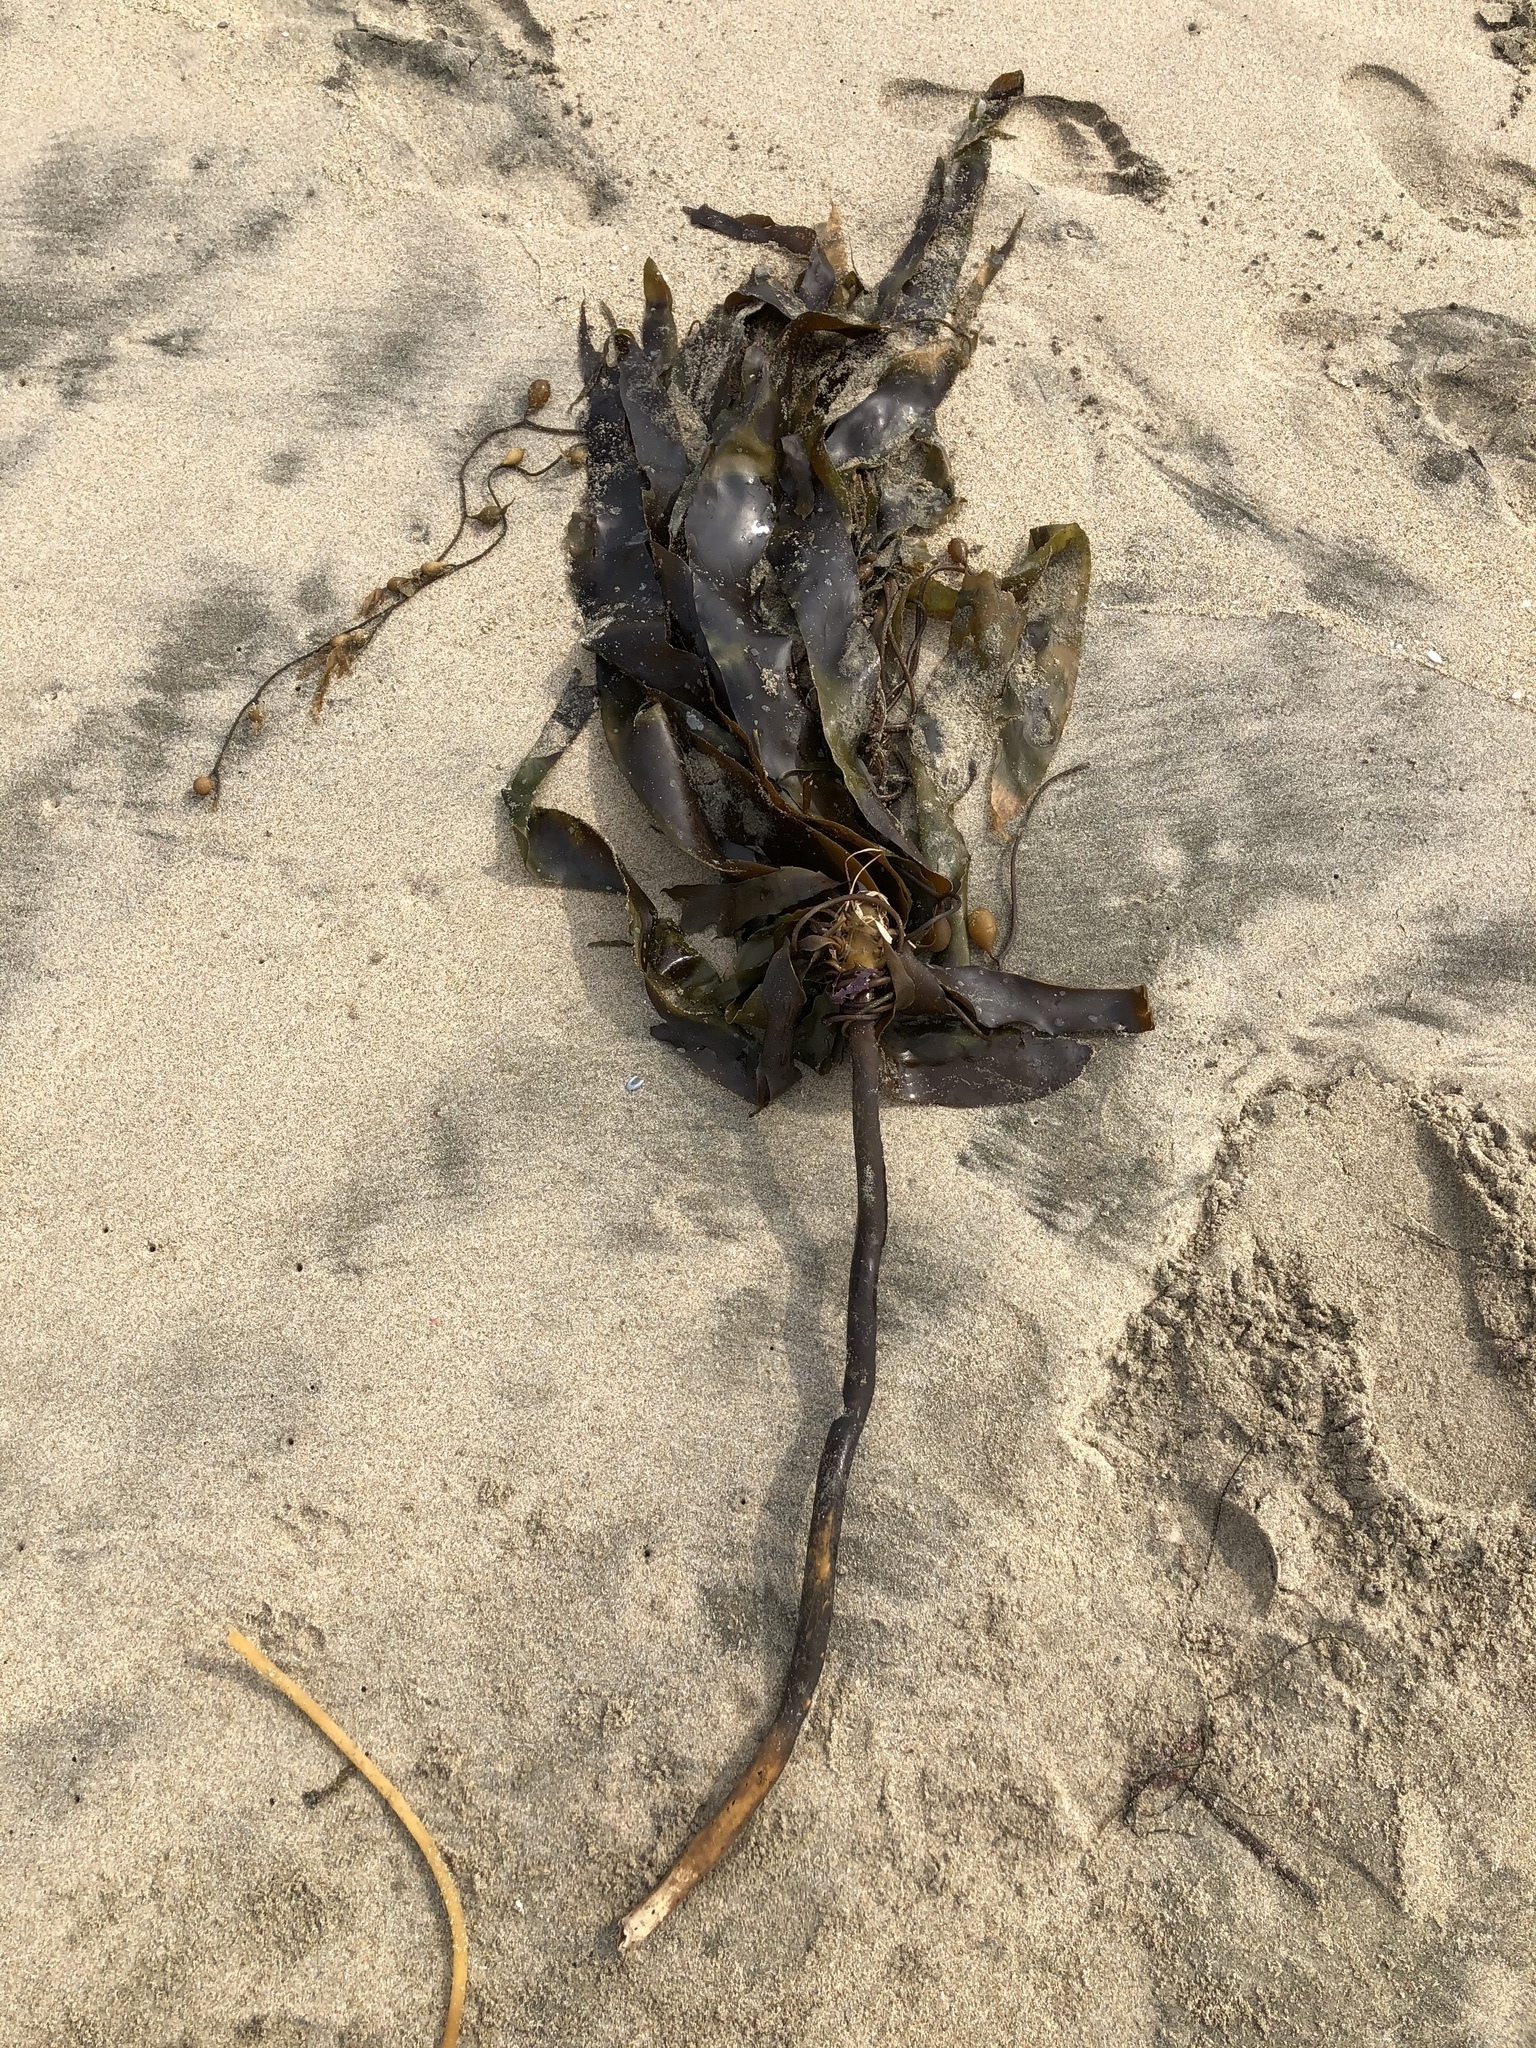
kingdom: Chromista
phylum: Ochrophyta
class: Phaeophyceae
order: Laminariales
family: Alariaceae
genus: Pterygophora
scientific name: Pterygophora californica
